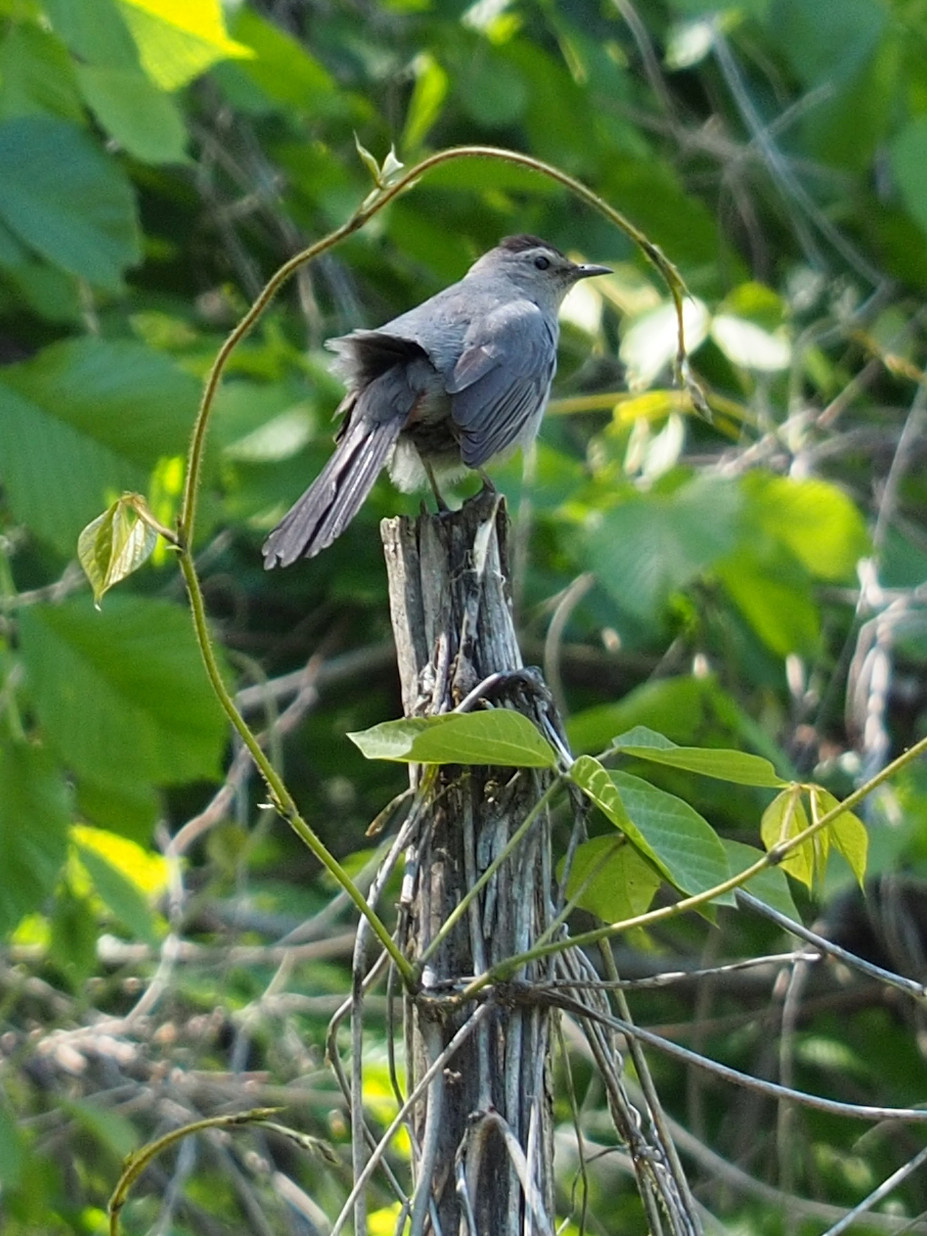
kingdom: Animalia
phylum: Chordata
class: Aves
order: Passeriformes
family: Mimidae
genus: Dumetella
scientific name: Dumetella carolinensis
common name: Gray catbird
